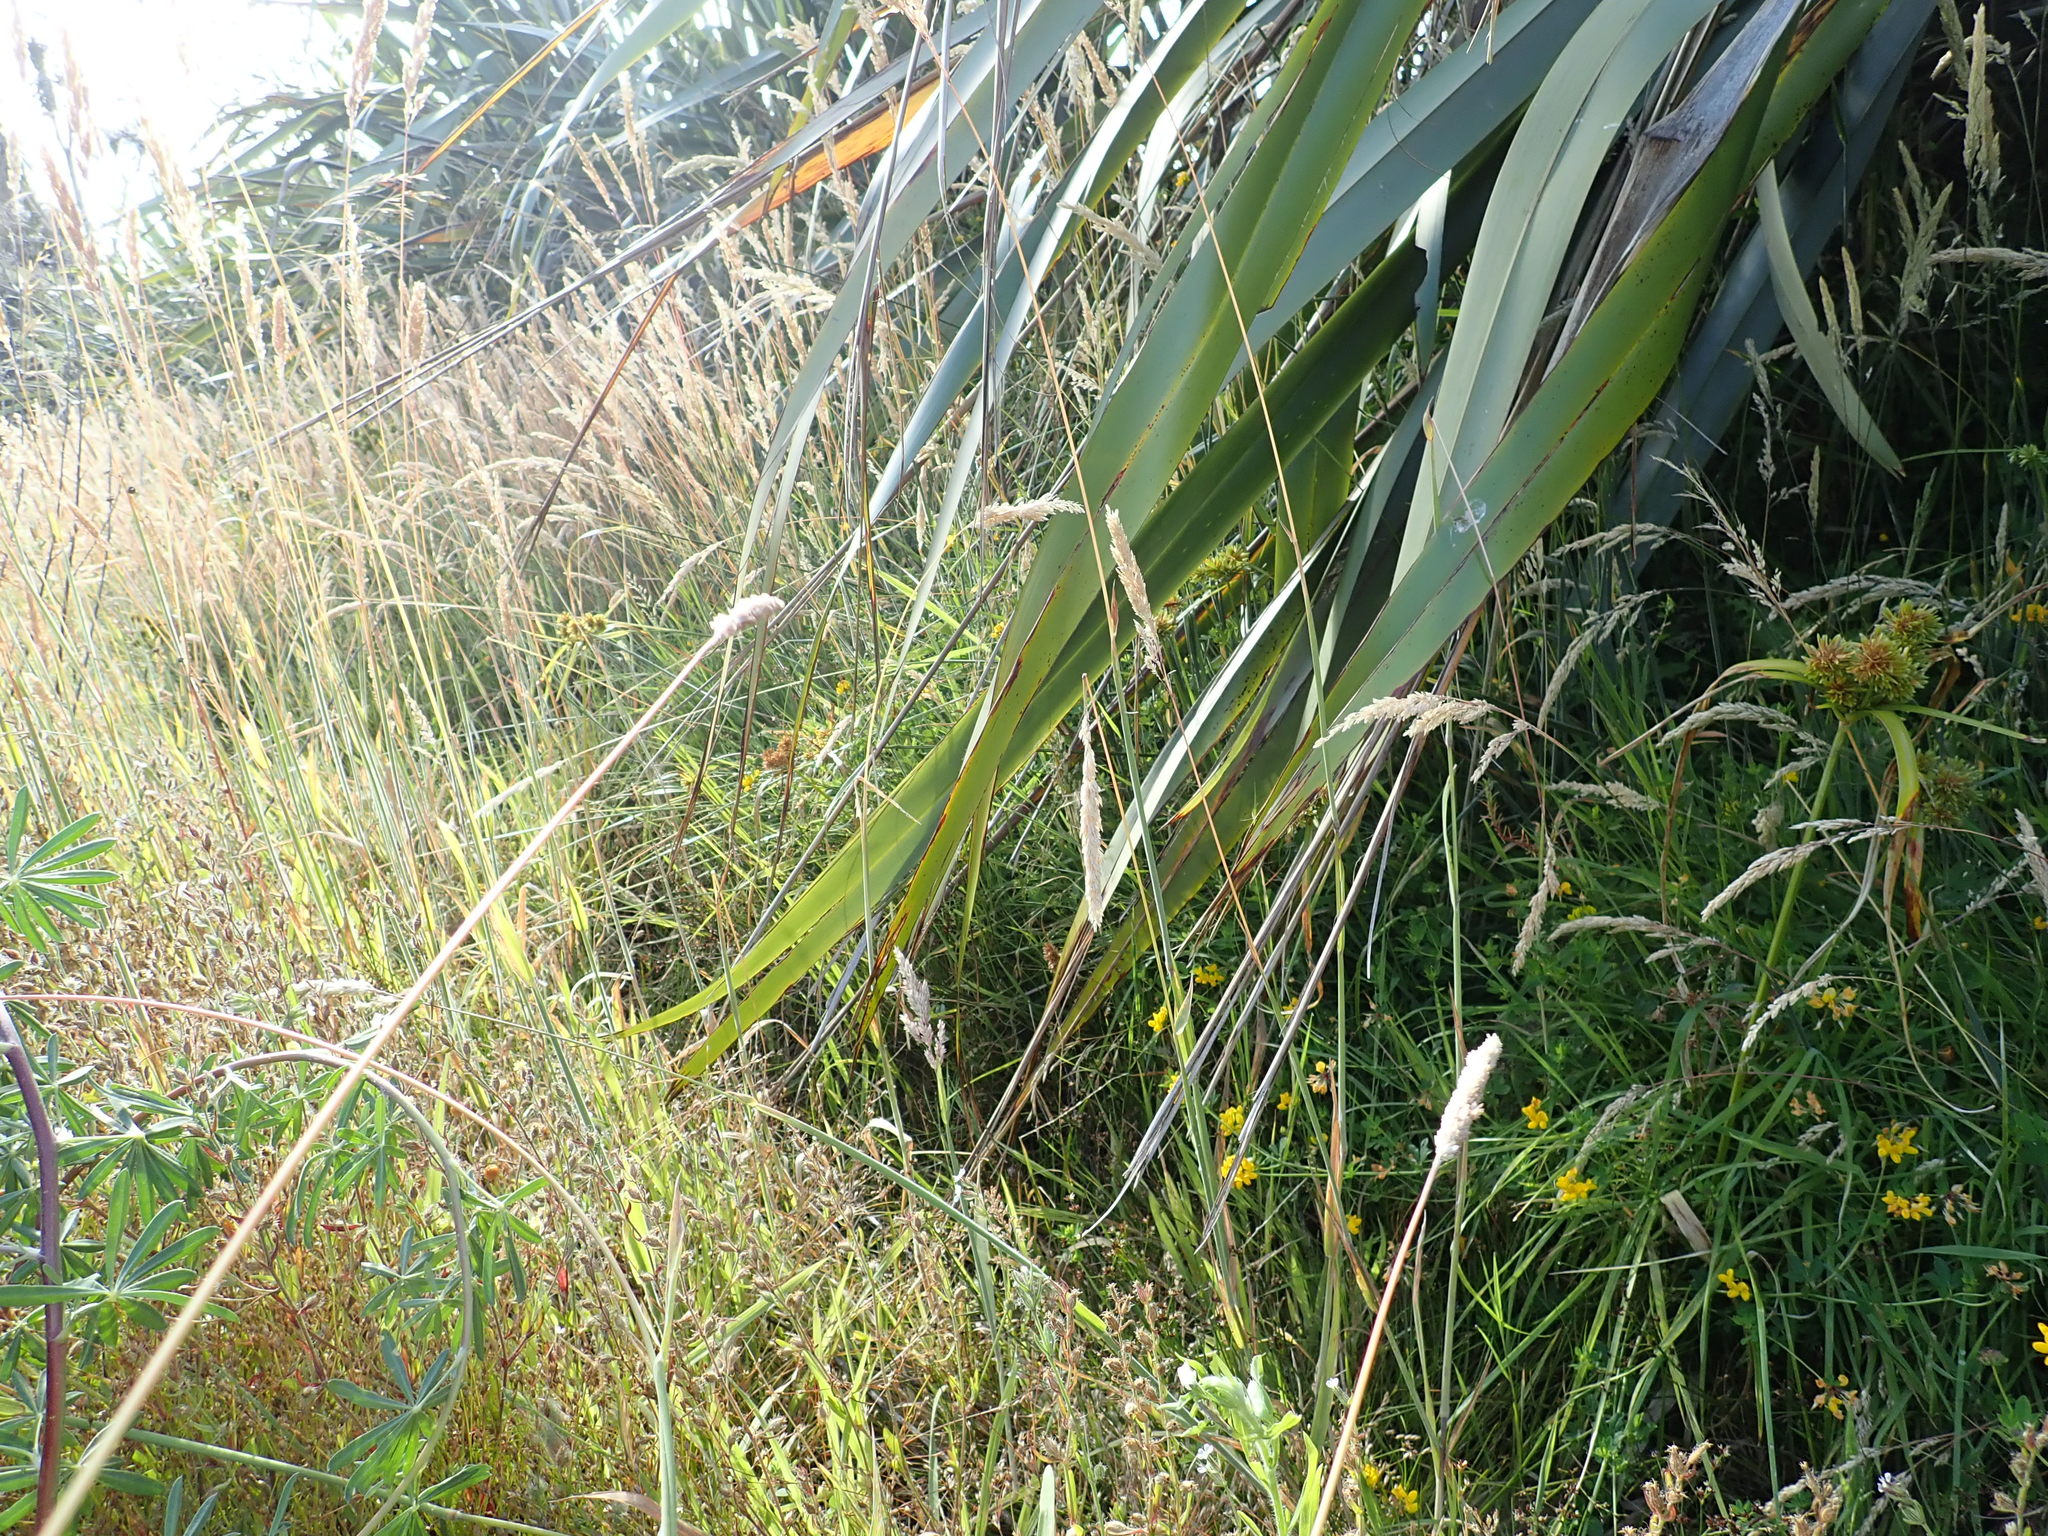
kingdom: Plantae
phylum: Tracheophyta
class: Liliopsida
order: Poales
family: Cyperaceae
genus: Cyperus
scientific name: Cyperus eragrostis
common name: Tall flatsedge
